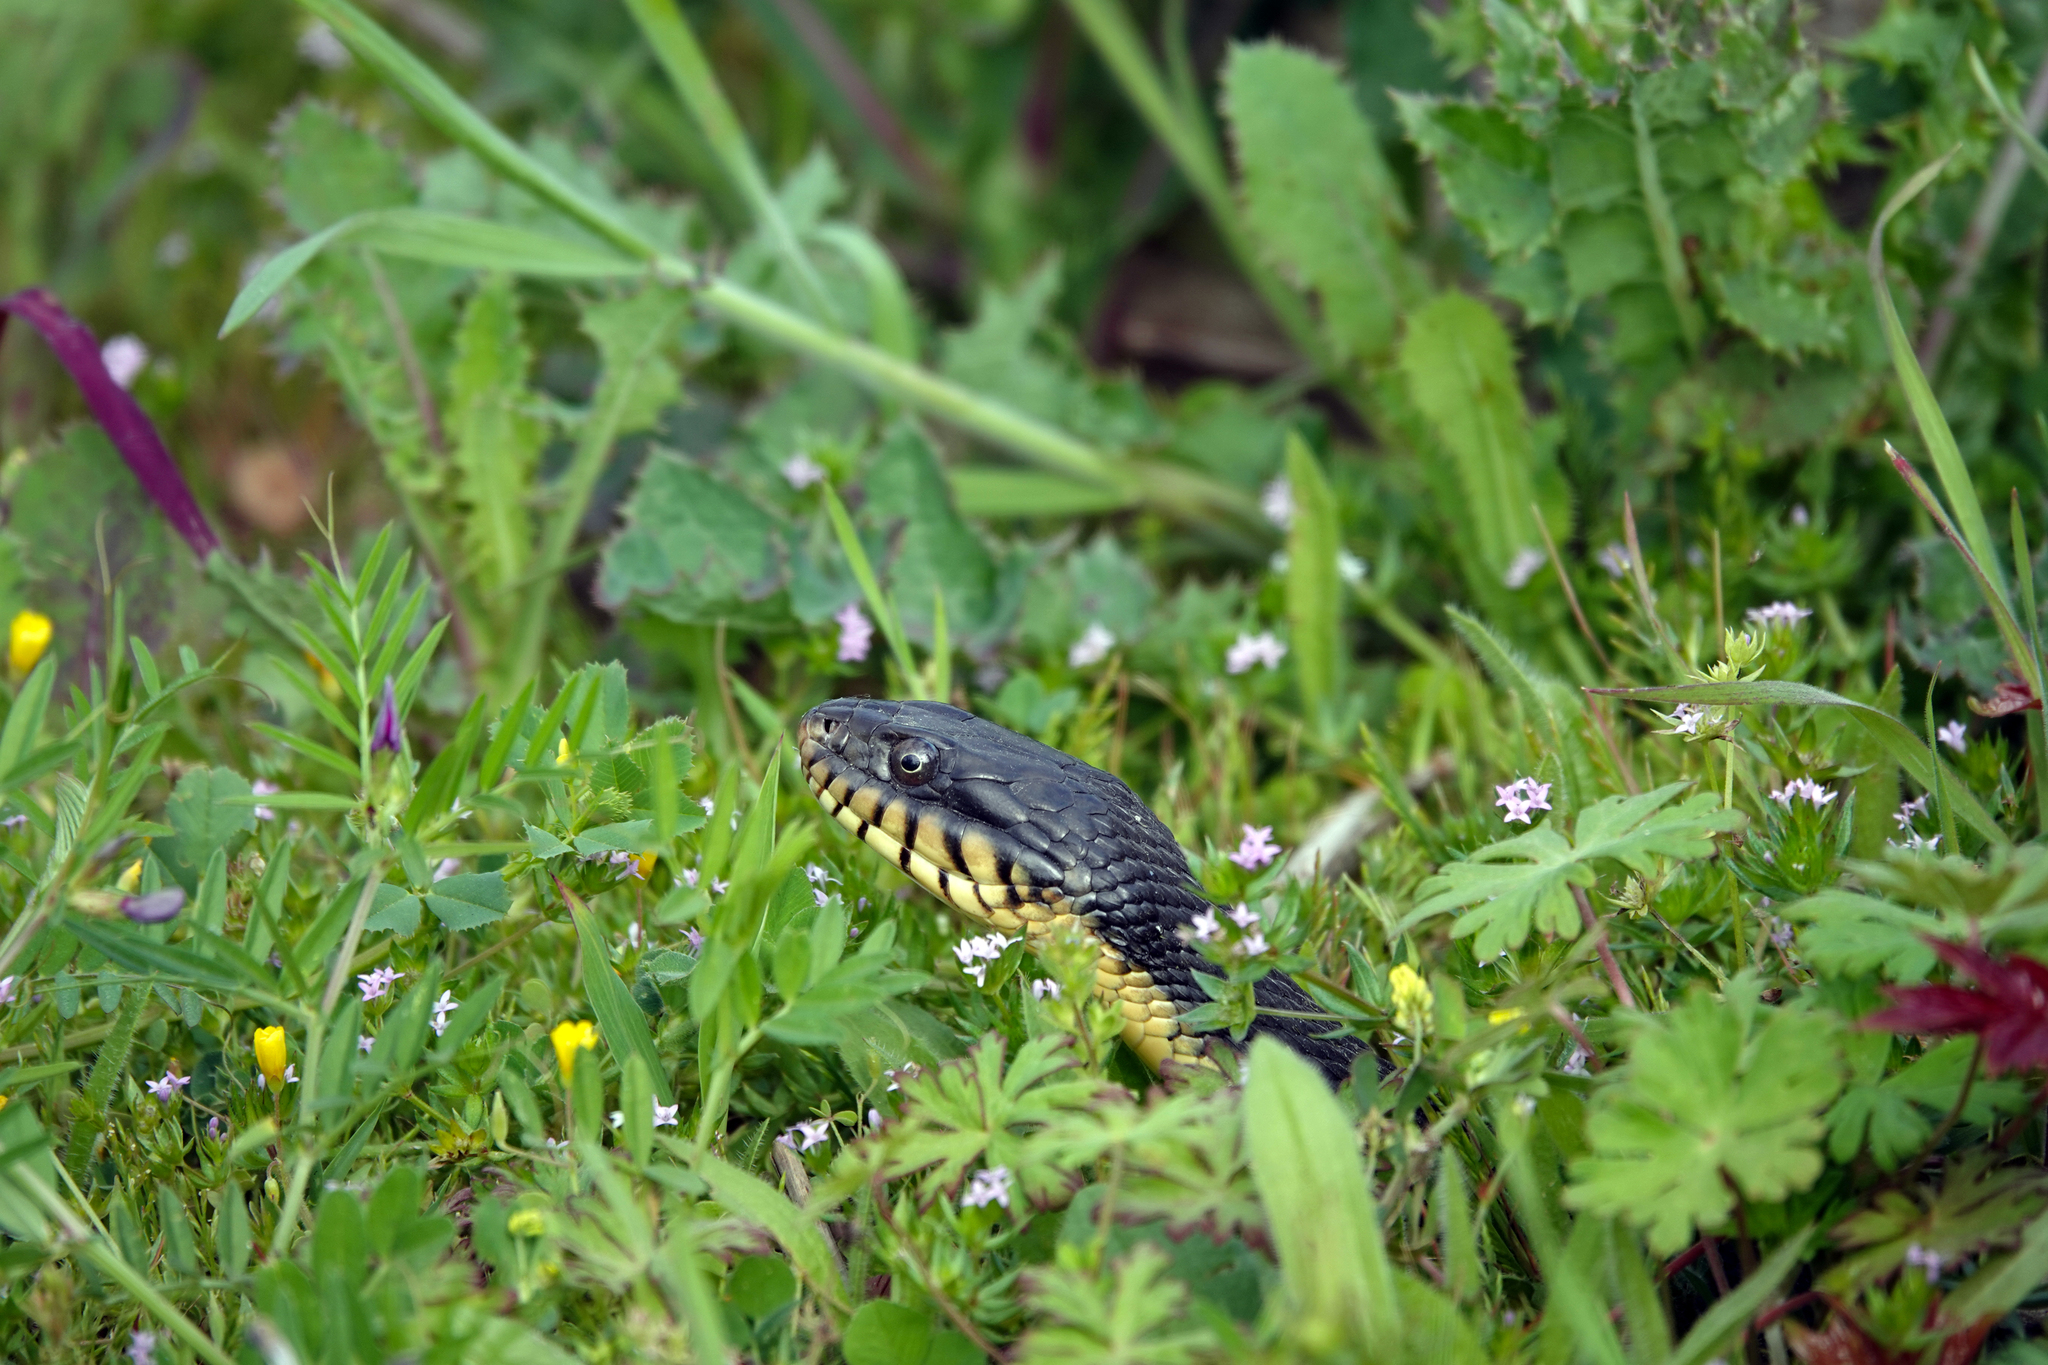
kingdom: Animalia
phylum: Chordata
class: Squamata
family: Colubridae
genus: Nerodia
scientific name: Nerodia erythrogaster
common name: Plainbelly water snake
